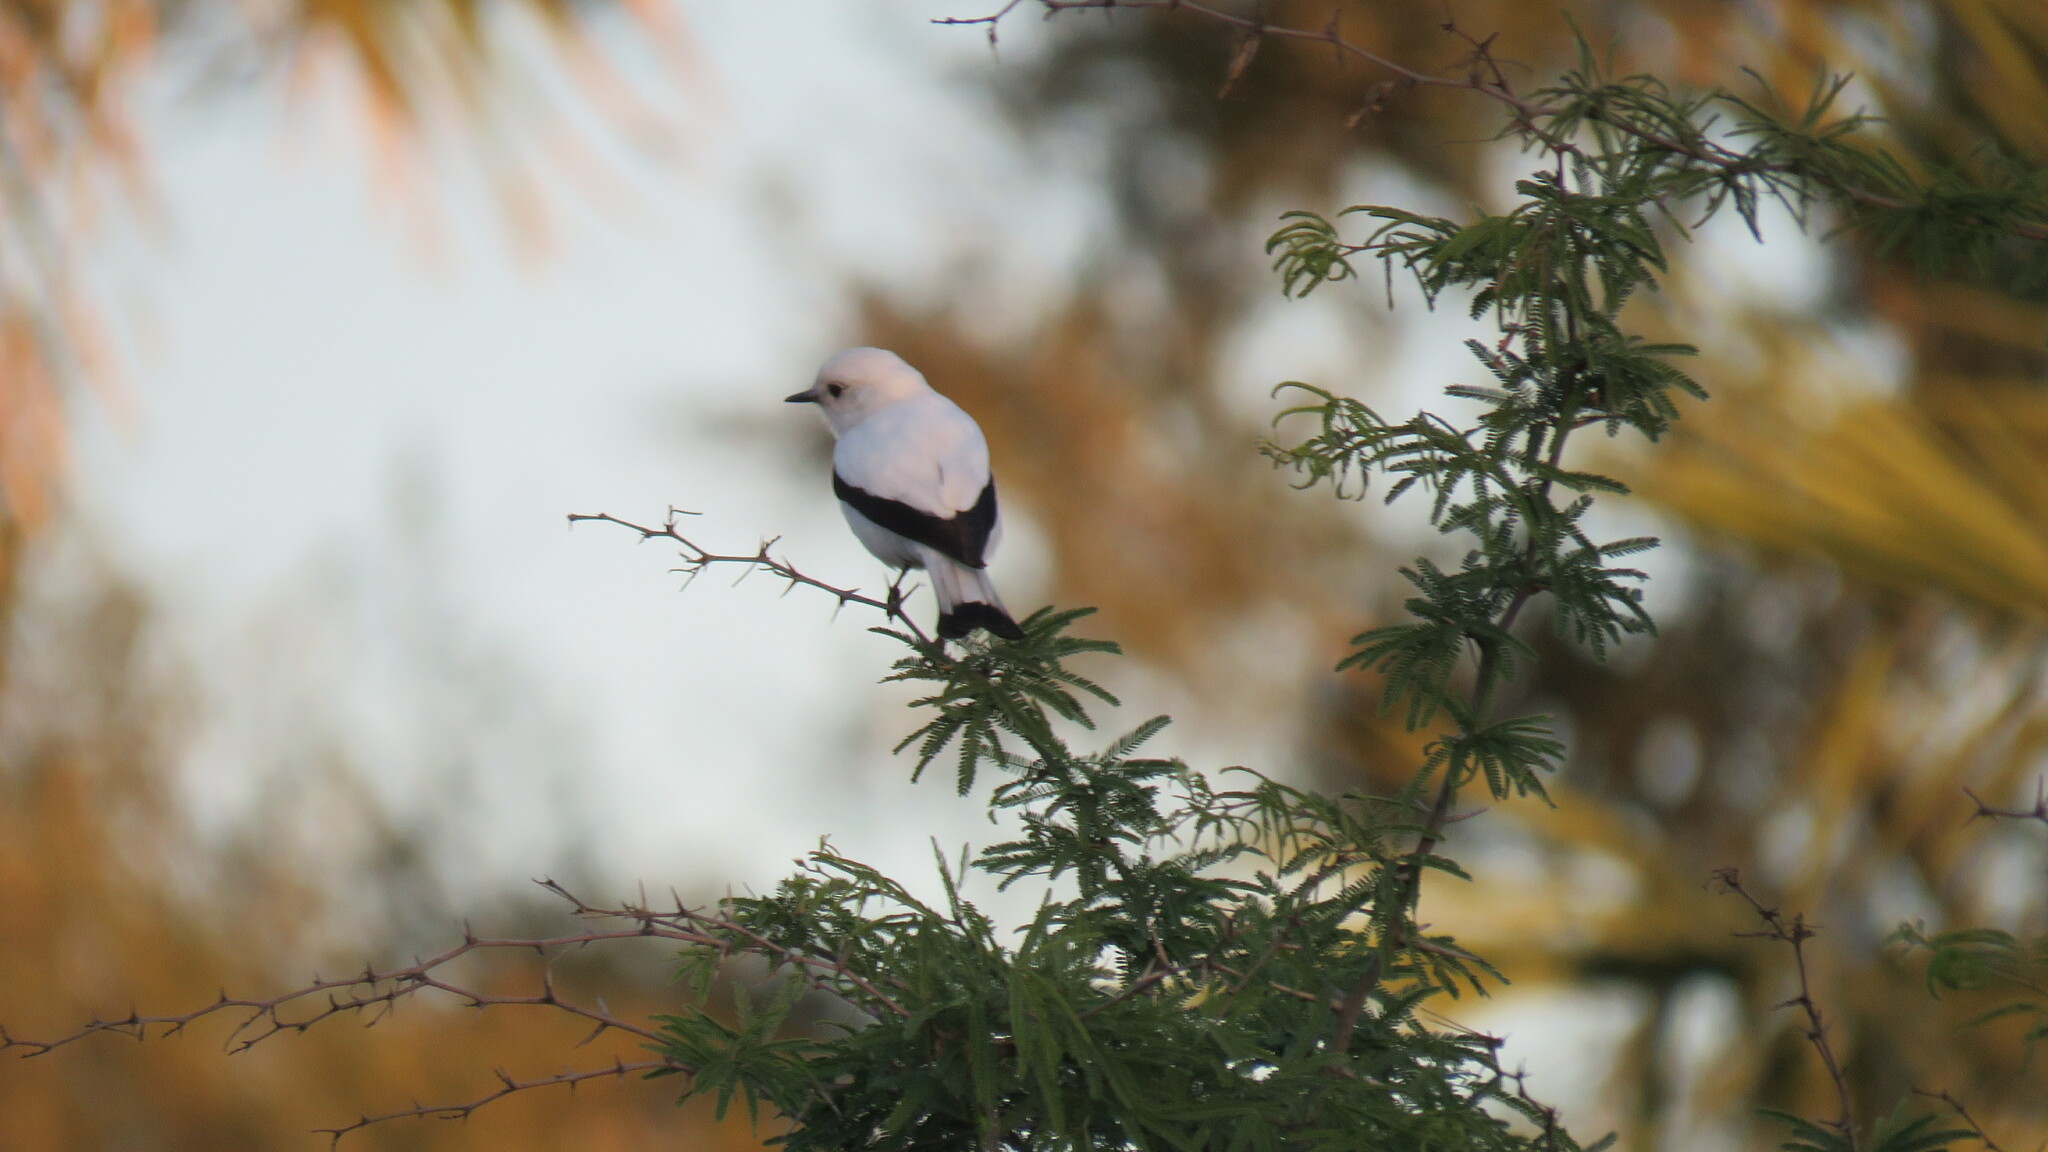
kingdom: Animalia
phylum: Chordata
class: Aves
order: Passeriformes
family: Tyrannidae
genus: Xolmis
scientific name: Xolmis irupero
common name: White monjita
